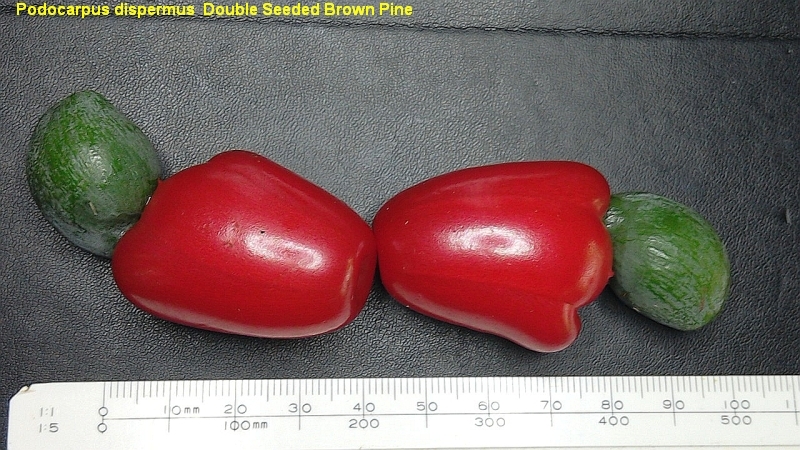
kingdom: Plantae
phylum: Tracheophyta
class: Pinopsida
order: Pinales
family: Podocarpaceae
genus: Podocarpus
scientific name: Podocarpus dispermus
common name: Broad-leaved brown pine
